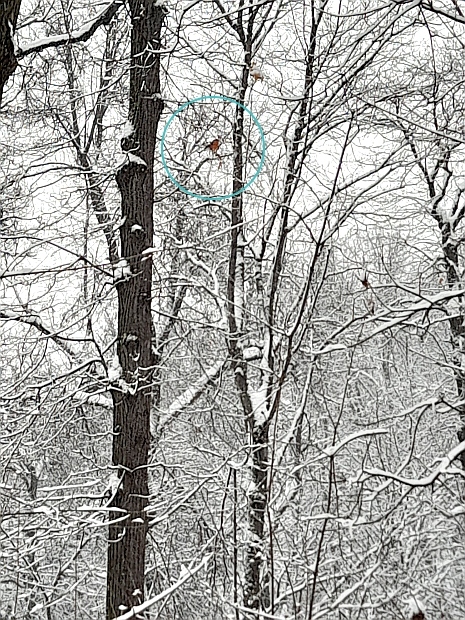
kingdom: Animalia
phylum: Chordata
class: Aves
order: Passeriformes
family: Fringillidae
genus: Pyrrhula
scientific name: Pyrrhula pyrrhula
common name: Eurasian bullfinch
